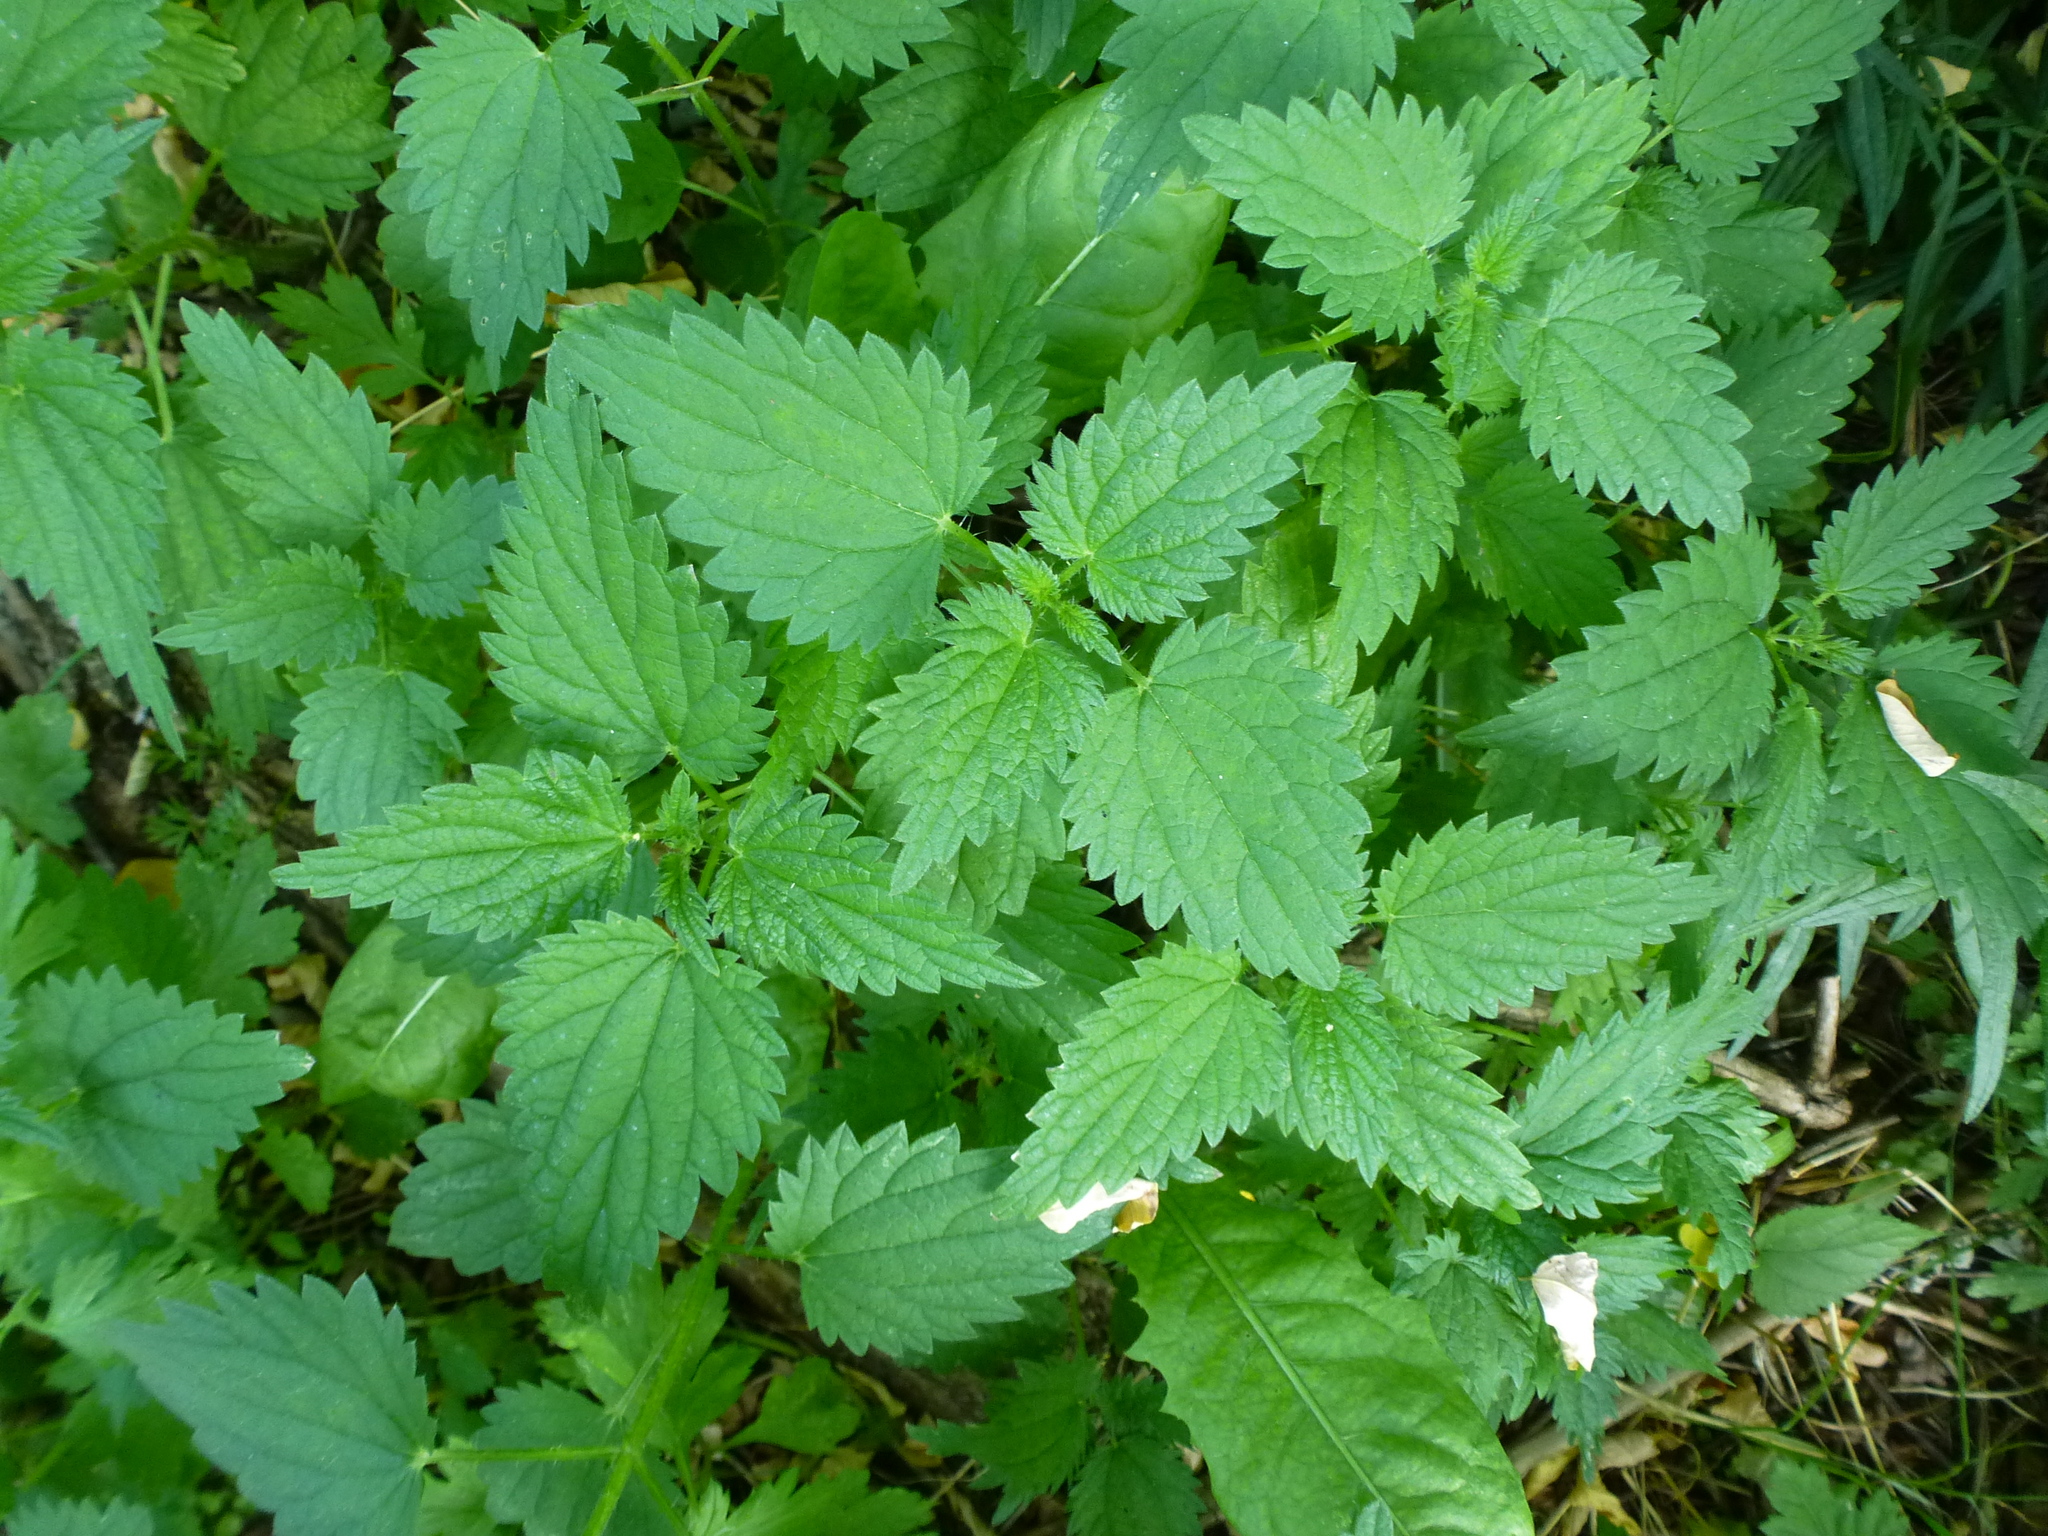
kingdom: Plantae
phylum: Tracheophyta
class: Magnoliopsida
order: Rosales
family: Urticaceae
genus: Urtica
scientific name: Urtica dioica
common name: Common nettle
